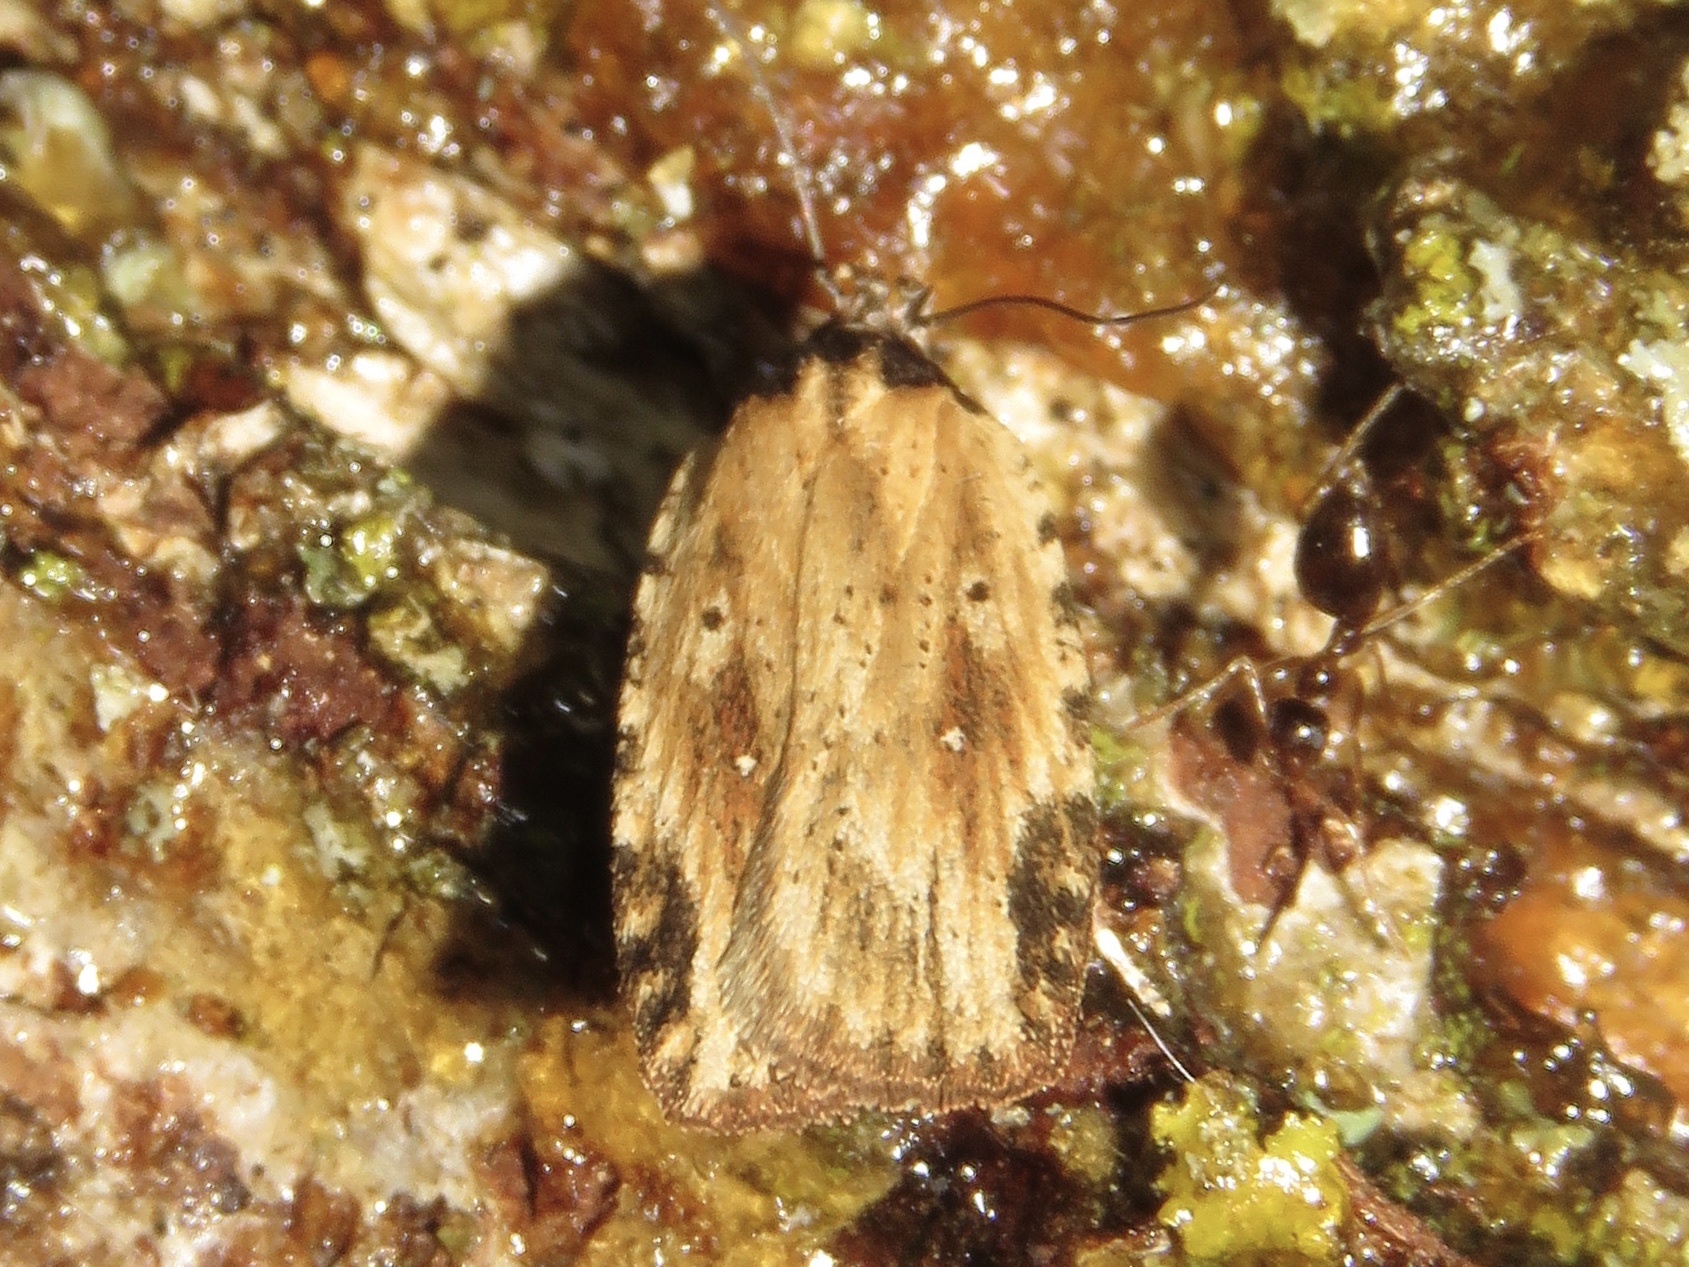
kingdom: Animalia
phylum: Arthropoda
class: Insecta
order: Lepidoptera
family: Depressariidae
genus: Agonopterix
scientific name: Agonopterix atrodorsella
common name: Beggartick leaffolder
